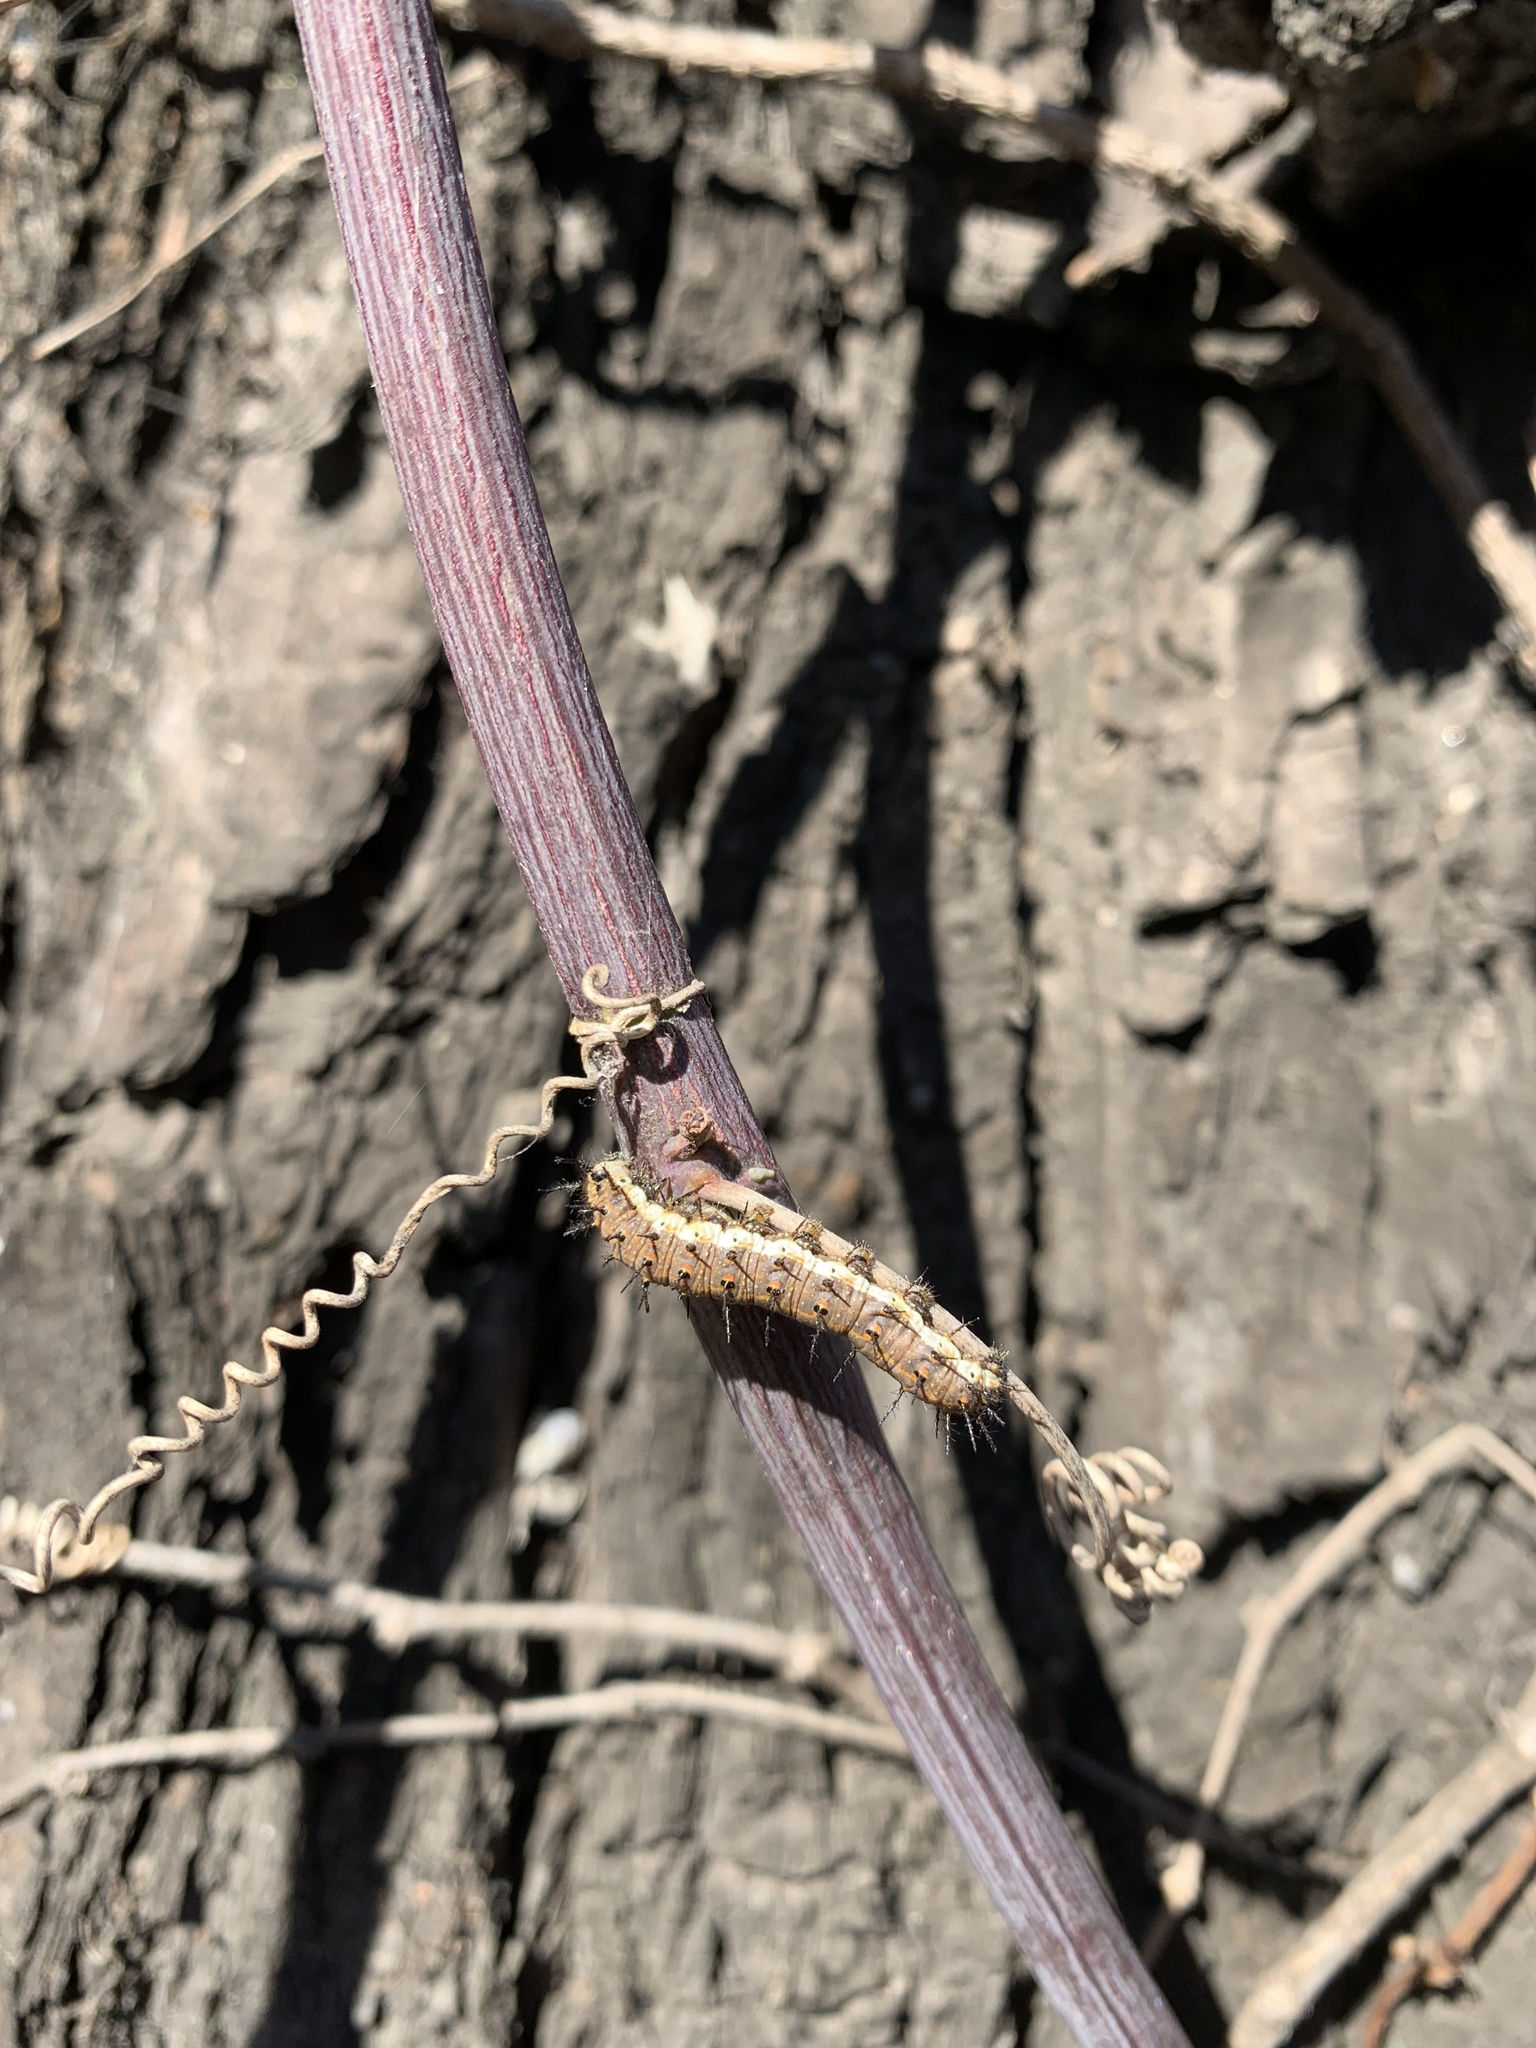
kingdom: Animalia
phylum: Arthropoda
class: Insecta
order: Lepidoptera
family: Nymphalidae
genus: Dione
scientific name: Dione vanillae
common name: Gulf fritillary
